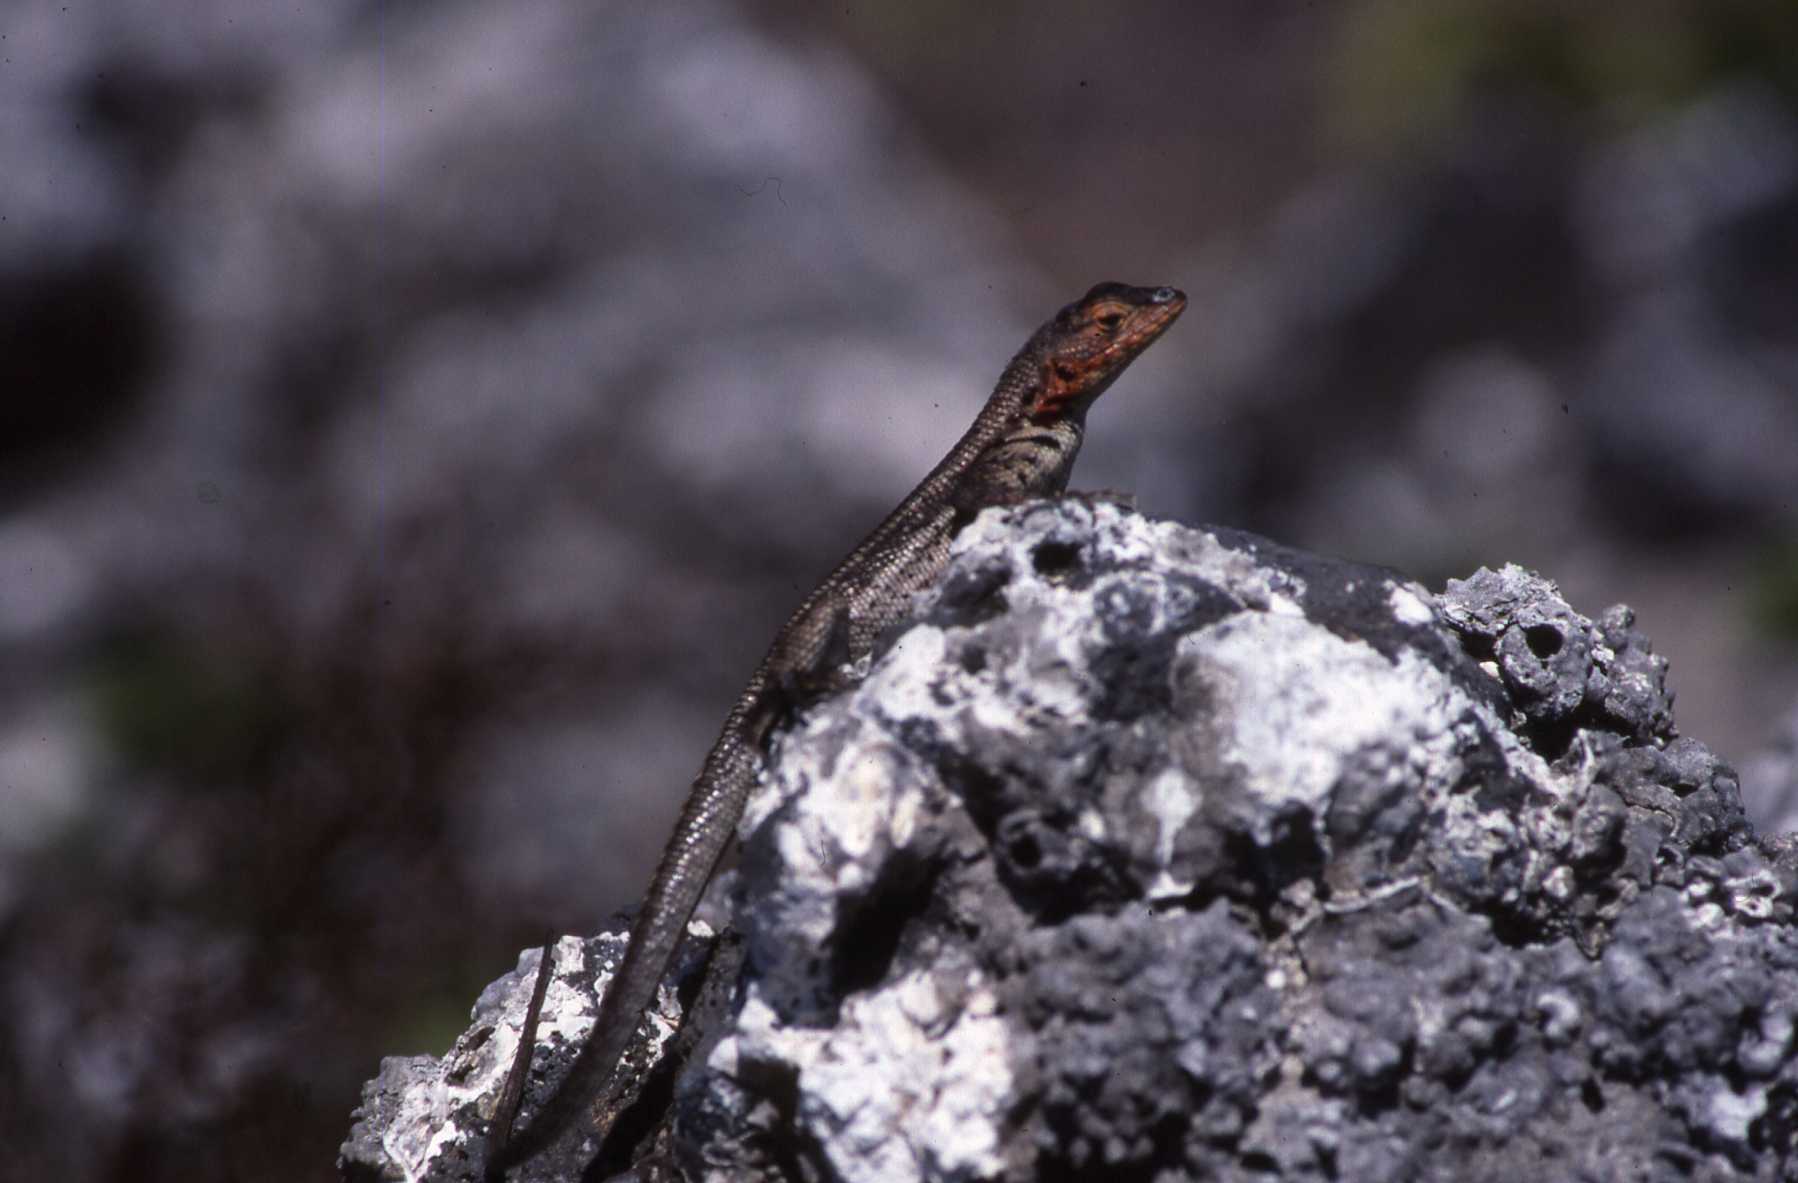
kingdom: Animalia
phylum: Chordata
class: Squamata
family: Tropiduridae
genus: Microlophus
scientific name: Microlophus albemarlensis
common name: Galapagos lava lizard
